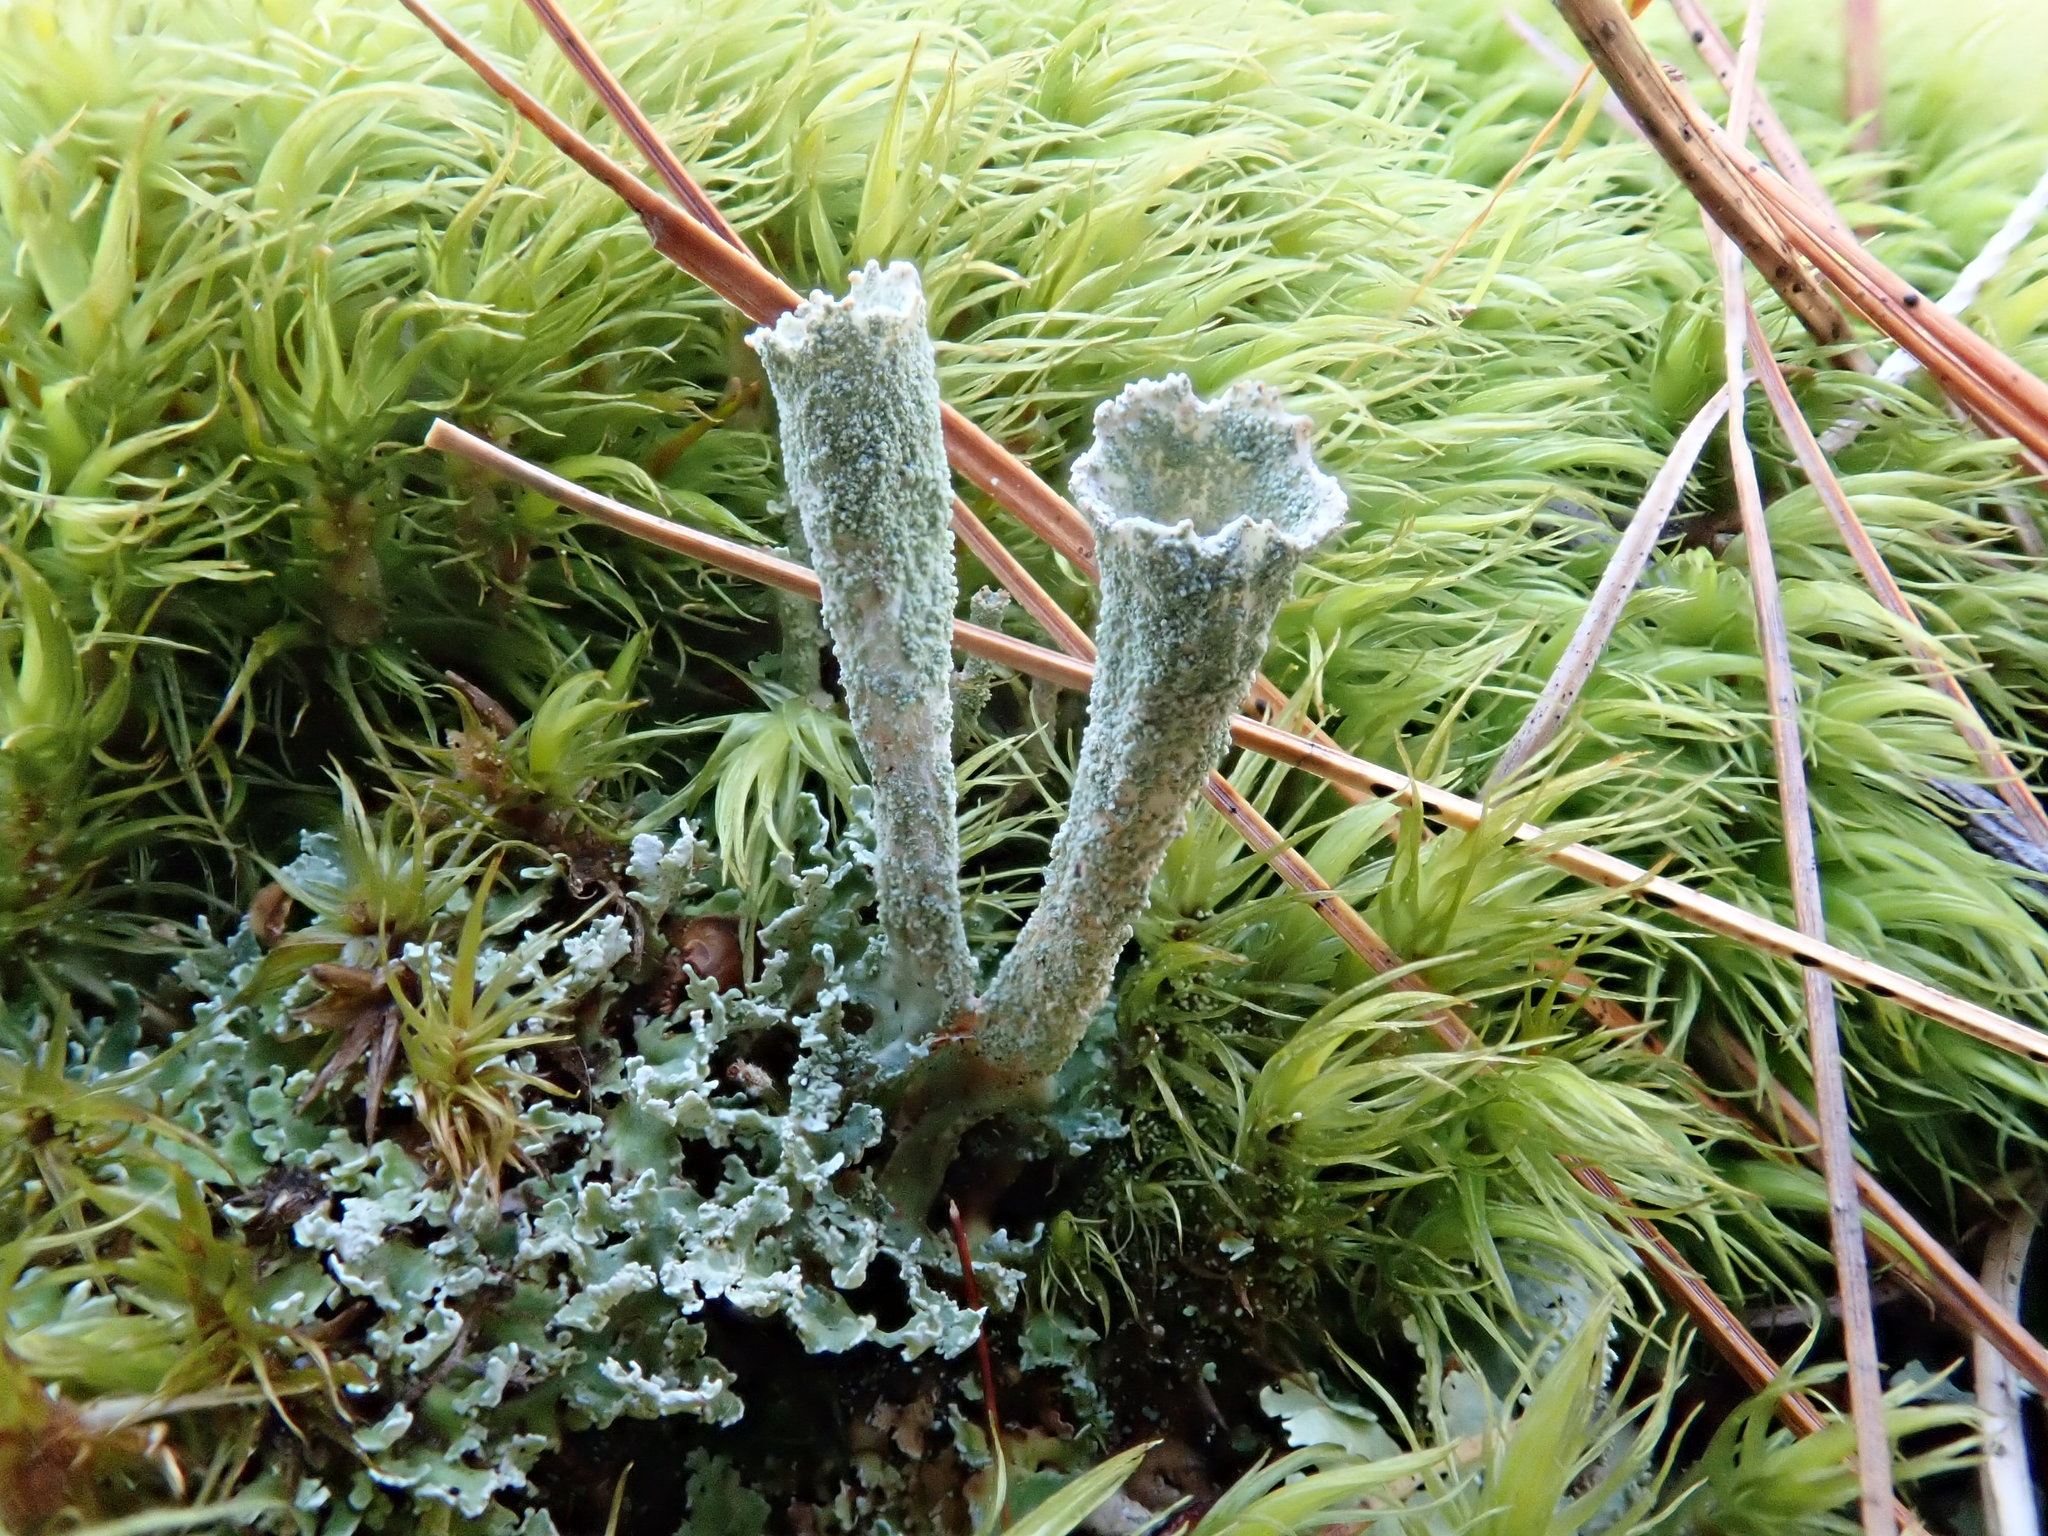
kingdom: Fungi
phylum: Ascomycota
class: Lecanoromycetes
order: Lecanorales
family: Cladoniaceae
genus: Cladonia
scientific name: Cladonia fimbriata
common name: Powdered trumpet lichen
